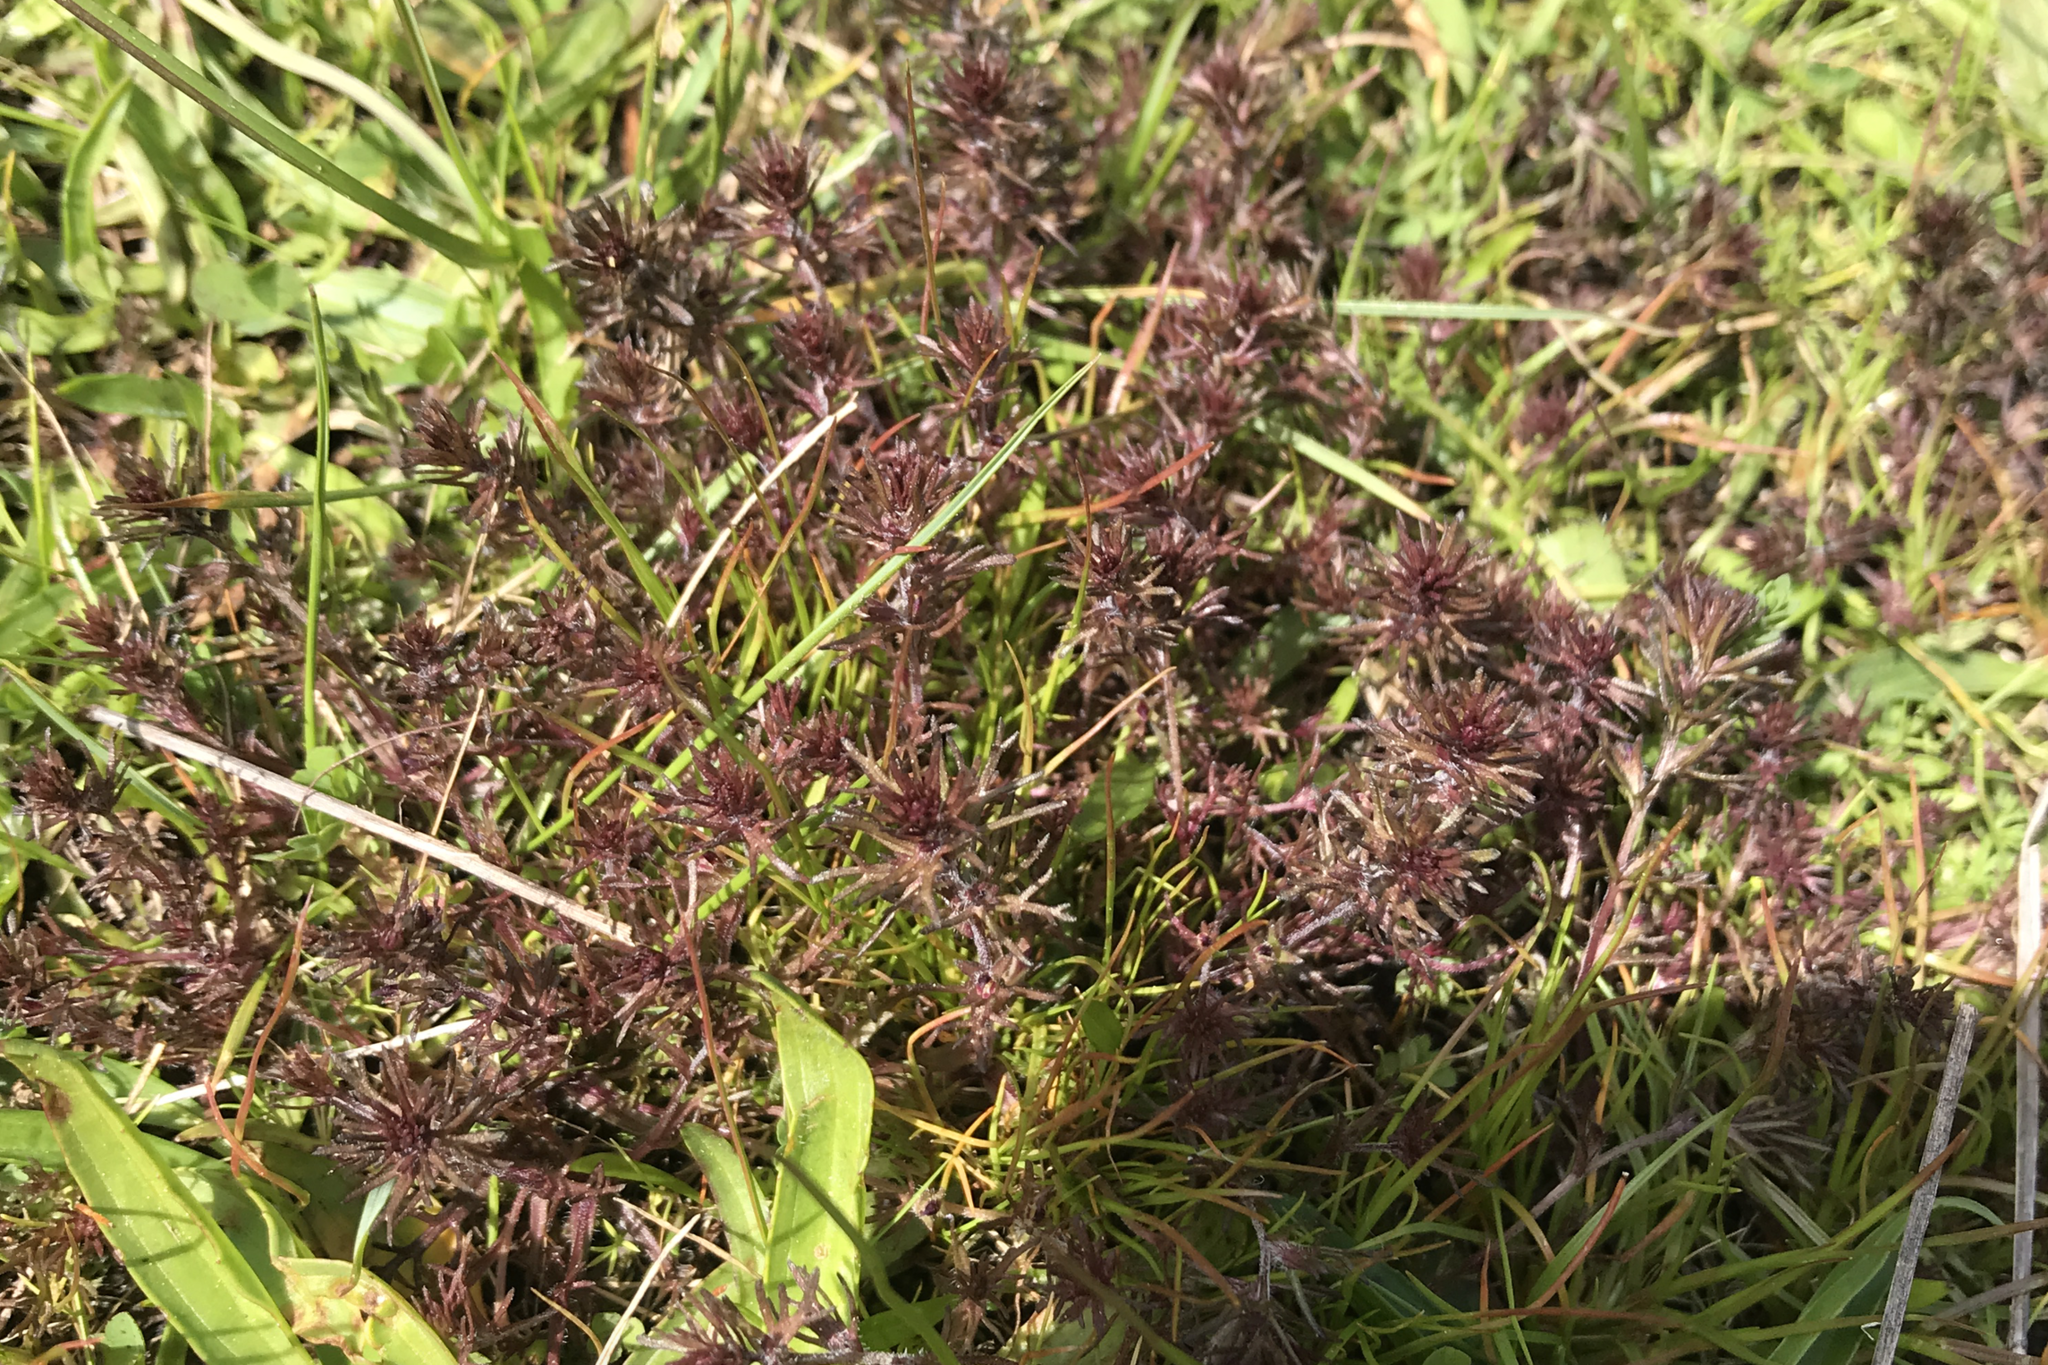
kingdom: Plantae
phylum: Tracheophyta
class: Magnoliopsida
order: Lamiales
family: Orobanchaceae
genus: Triphysaria
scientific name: Triphysaria pusilla
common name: Dwarf false owl-clover
